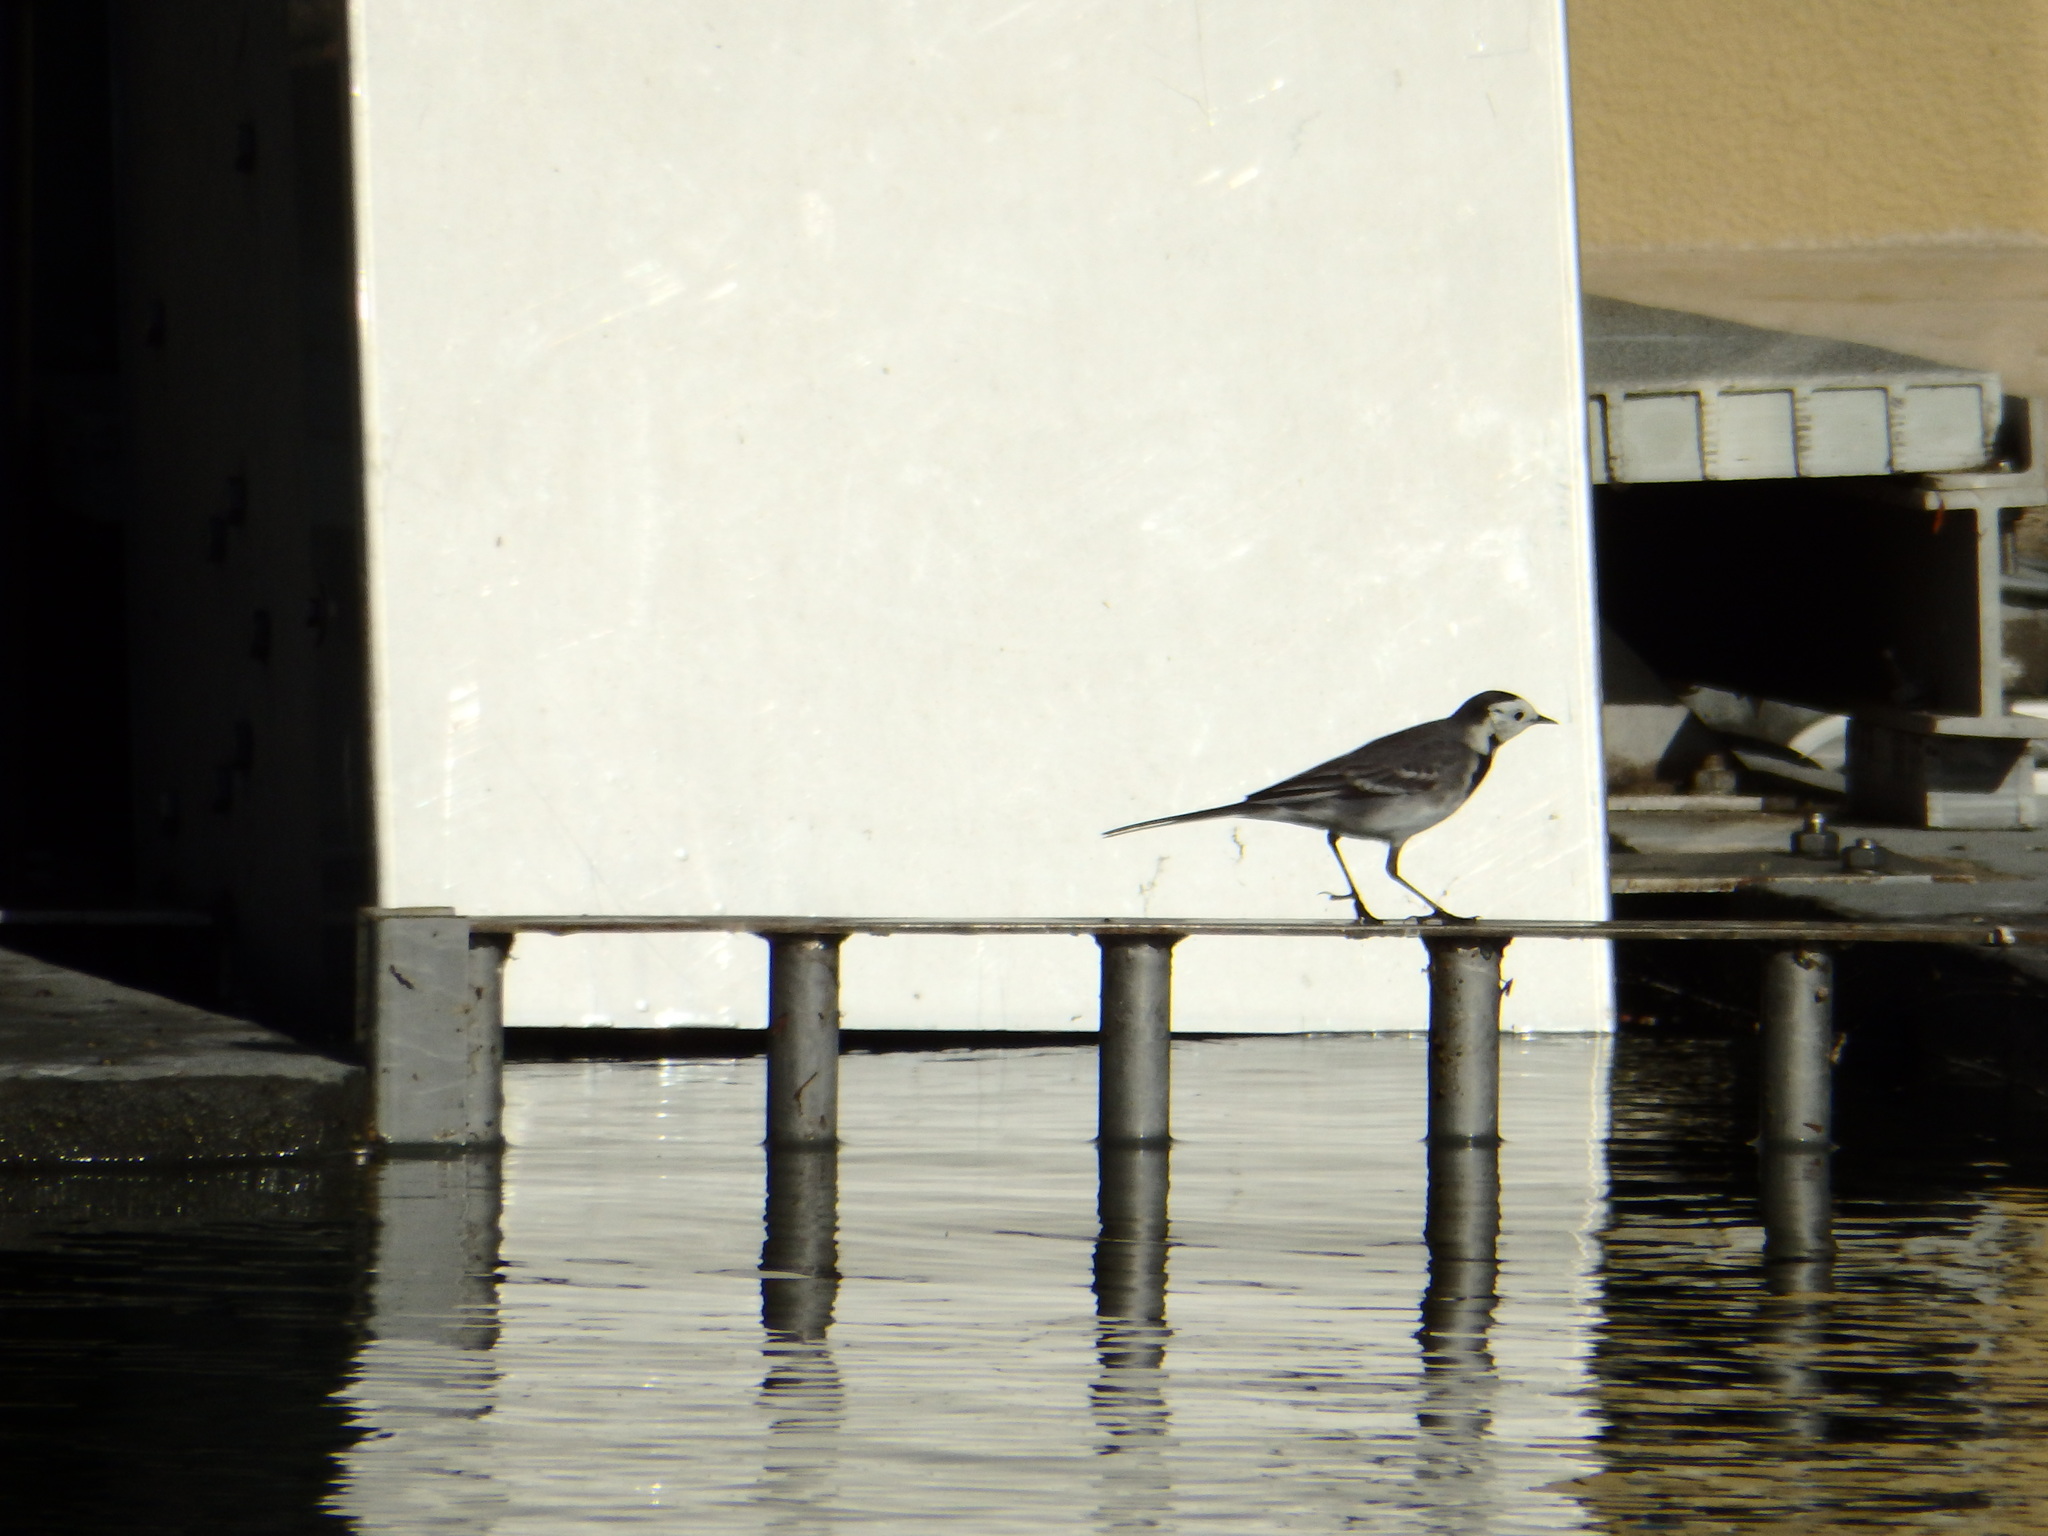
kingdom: Animalia
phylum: Chordata
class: Aves
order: Passeriformes
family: Motacillidae
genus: Motacilla
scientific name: Motacilla alba
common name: White wagtail
